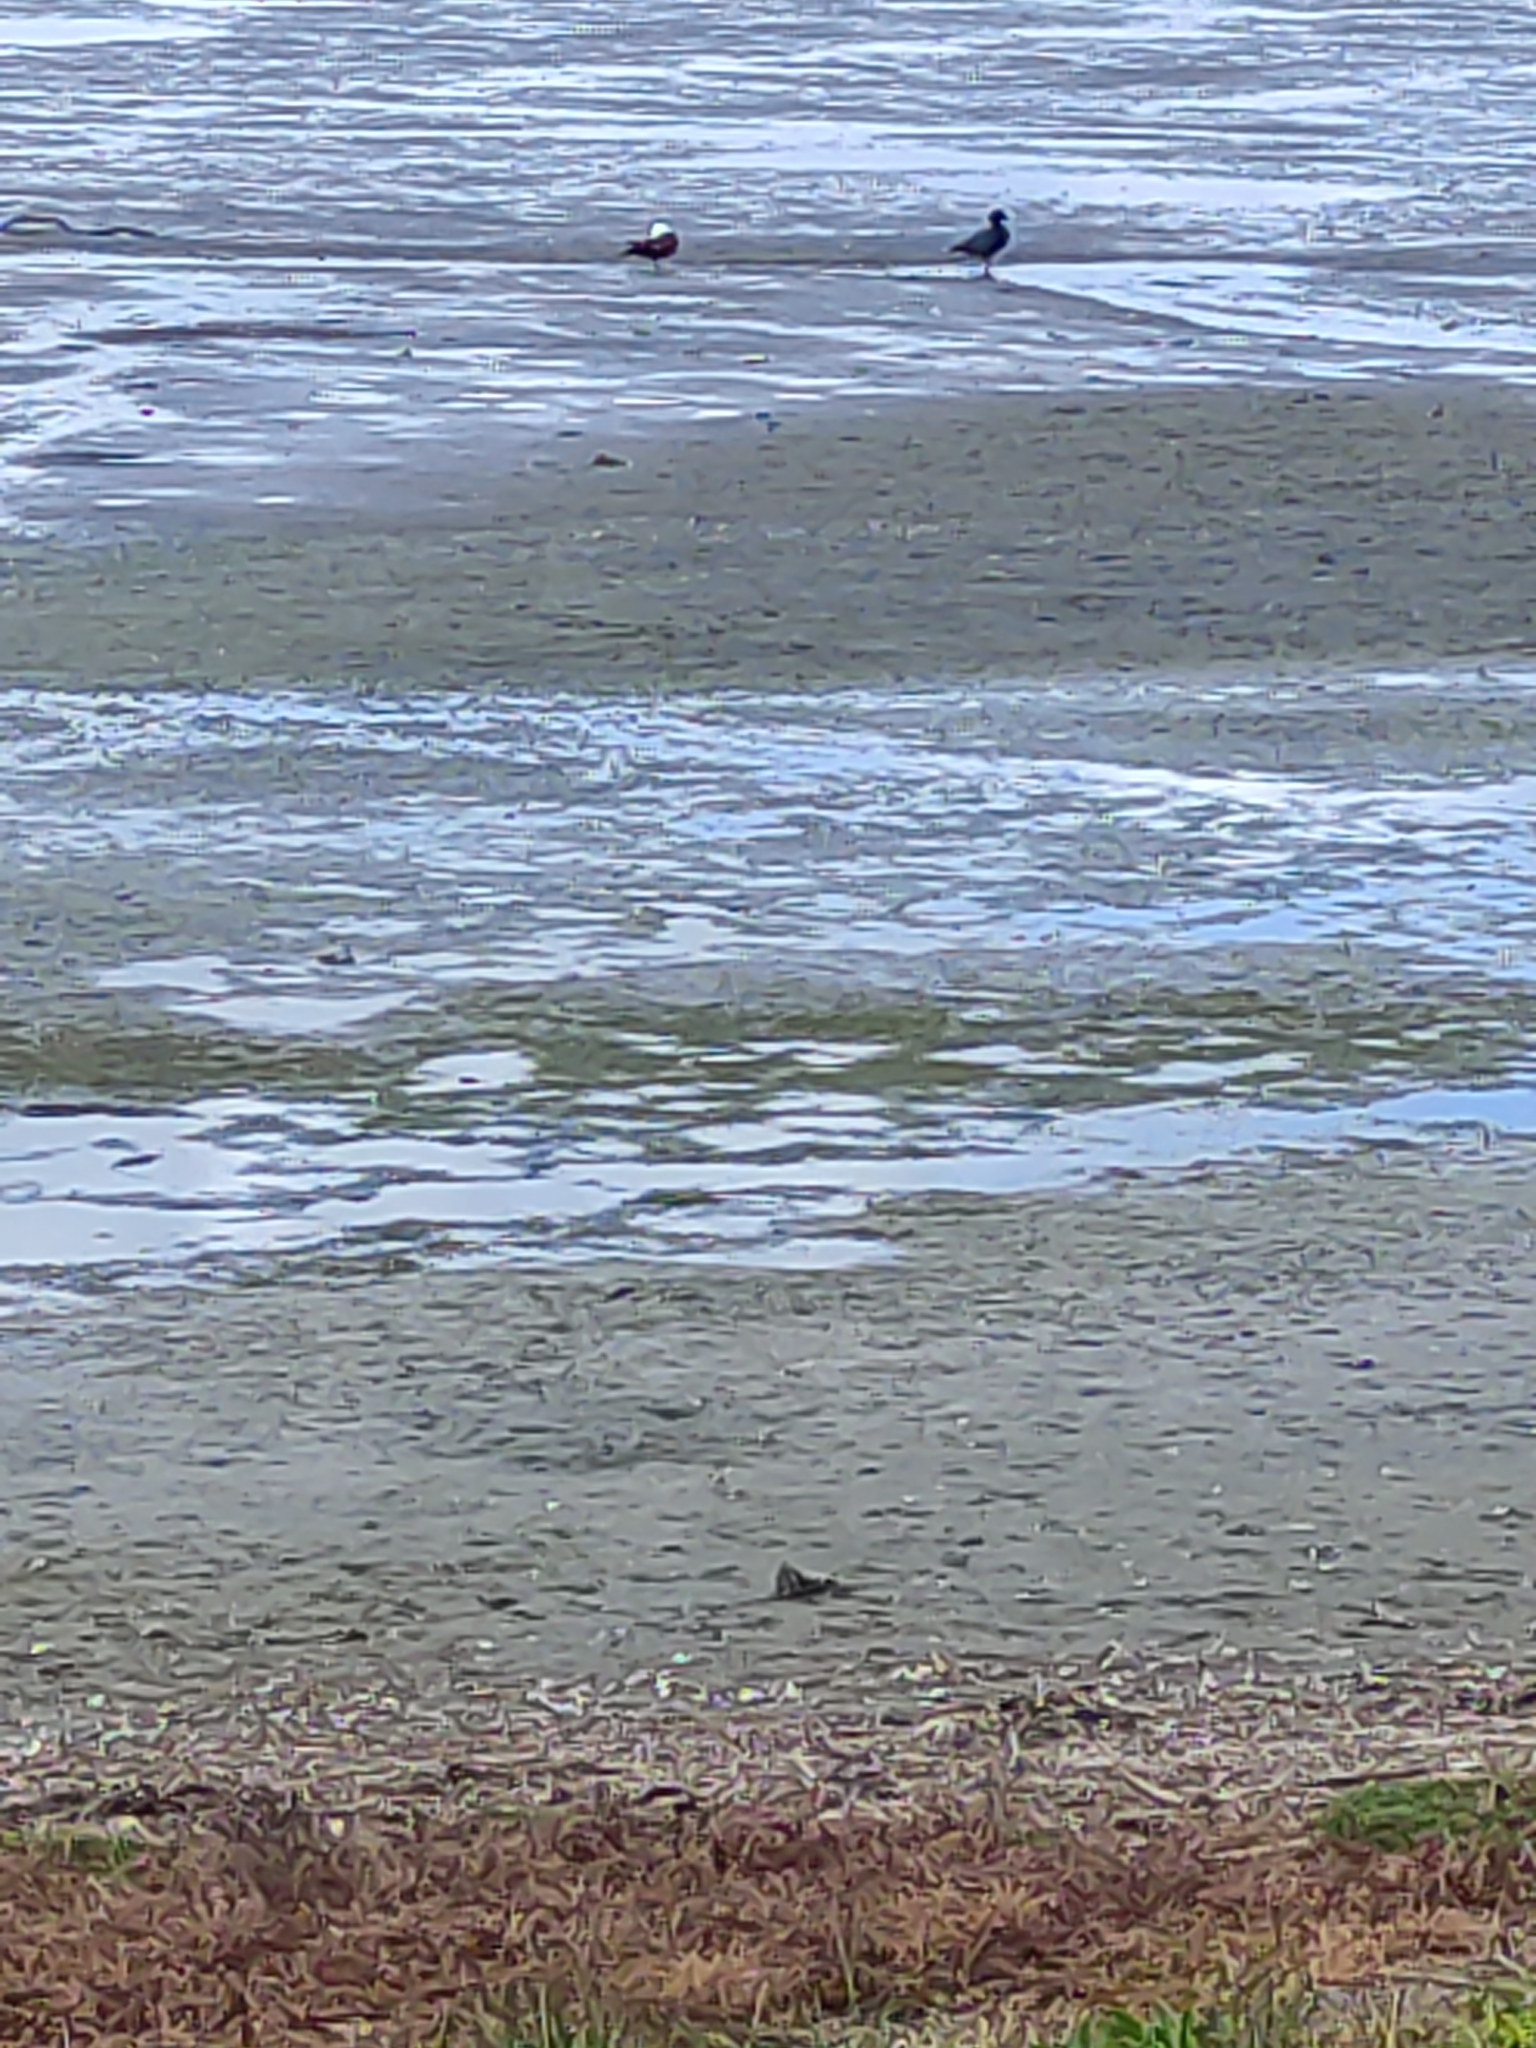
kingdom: Animalia
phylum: Chordata
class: Aves
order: Anseriformes
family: Anatidae
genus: Tadorna
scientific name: Tadorna variegata
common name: Paradise shelduck
